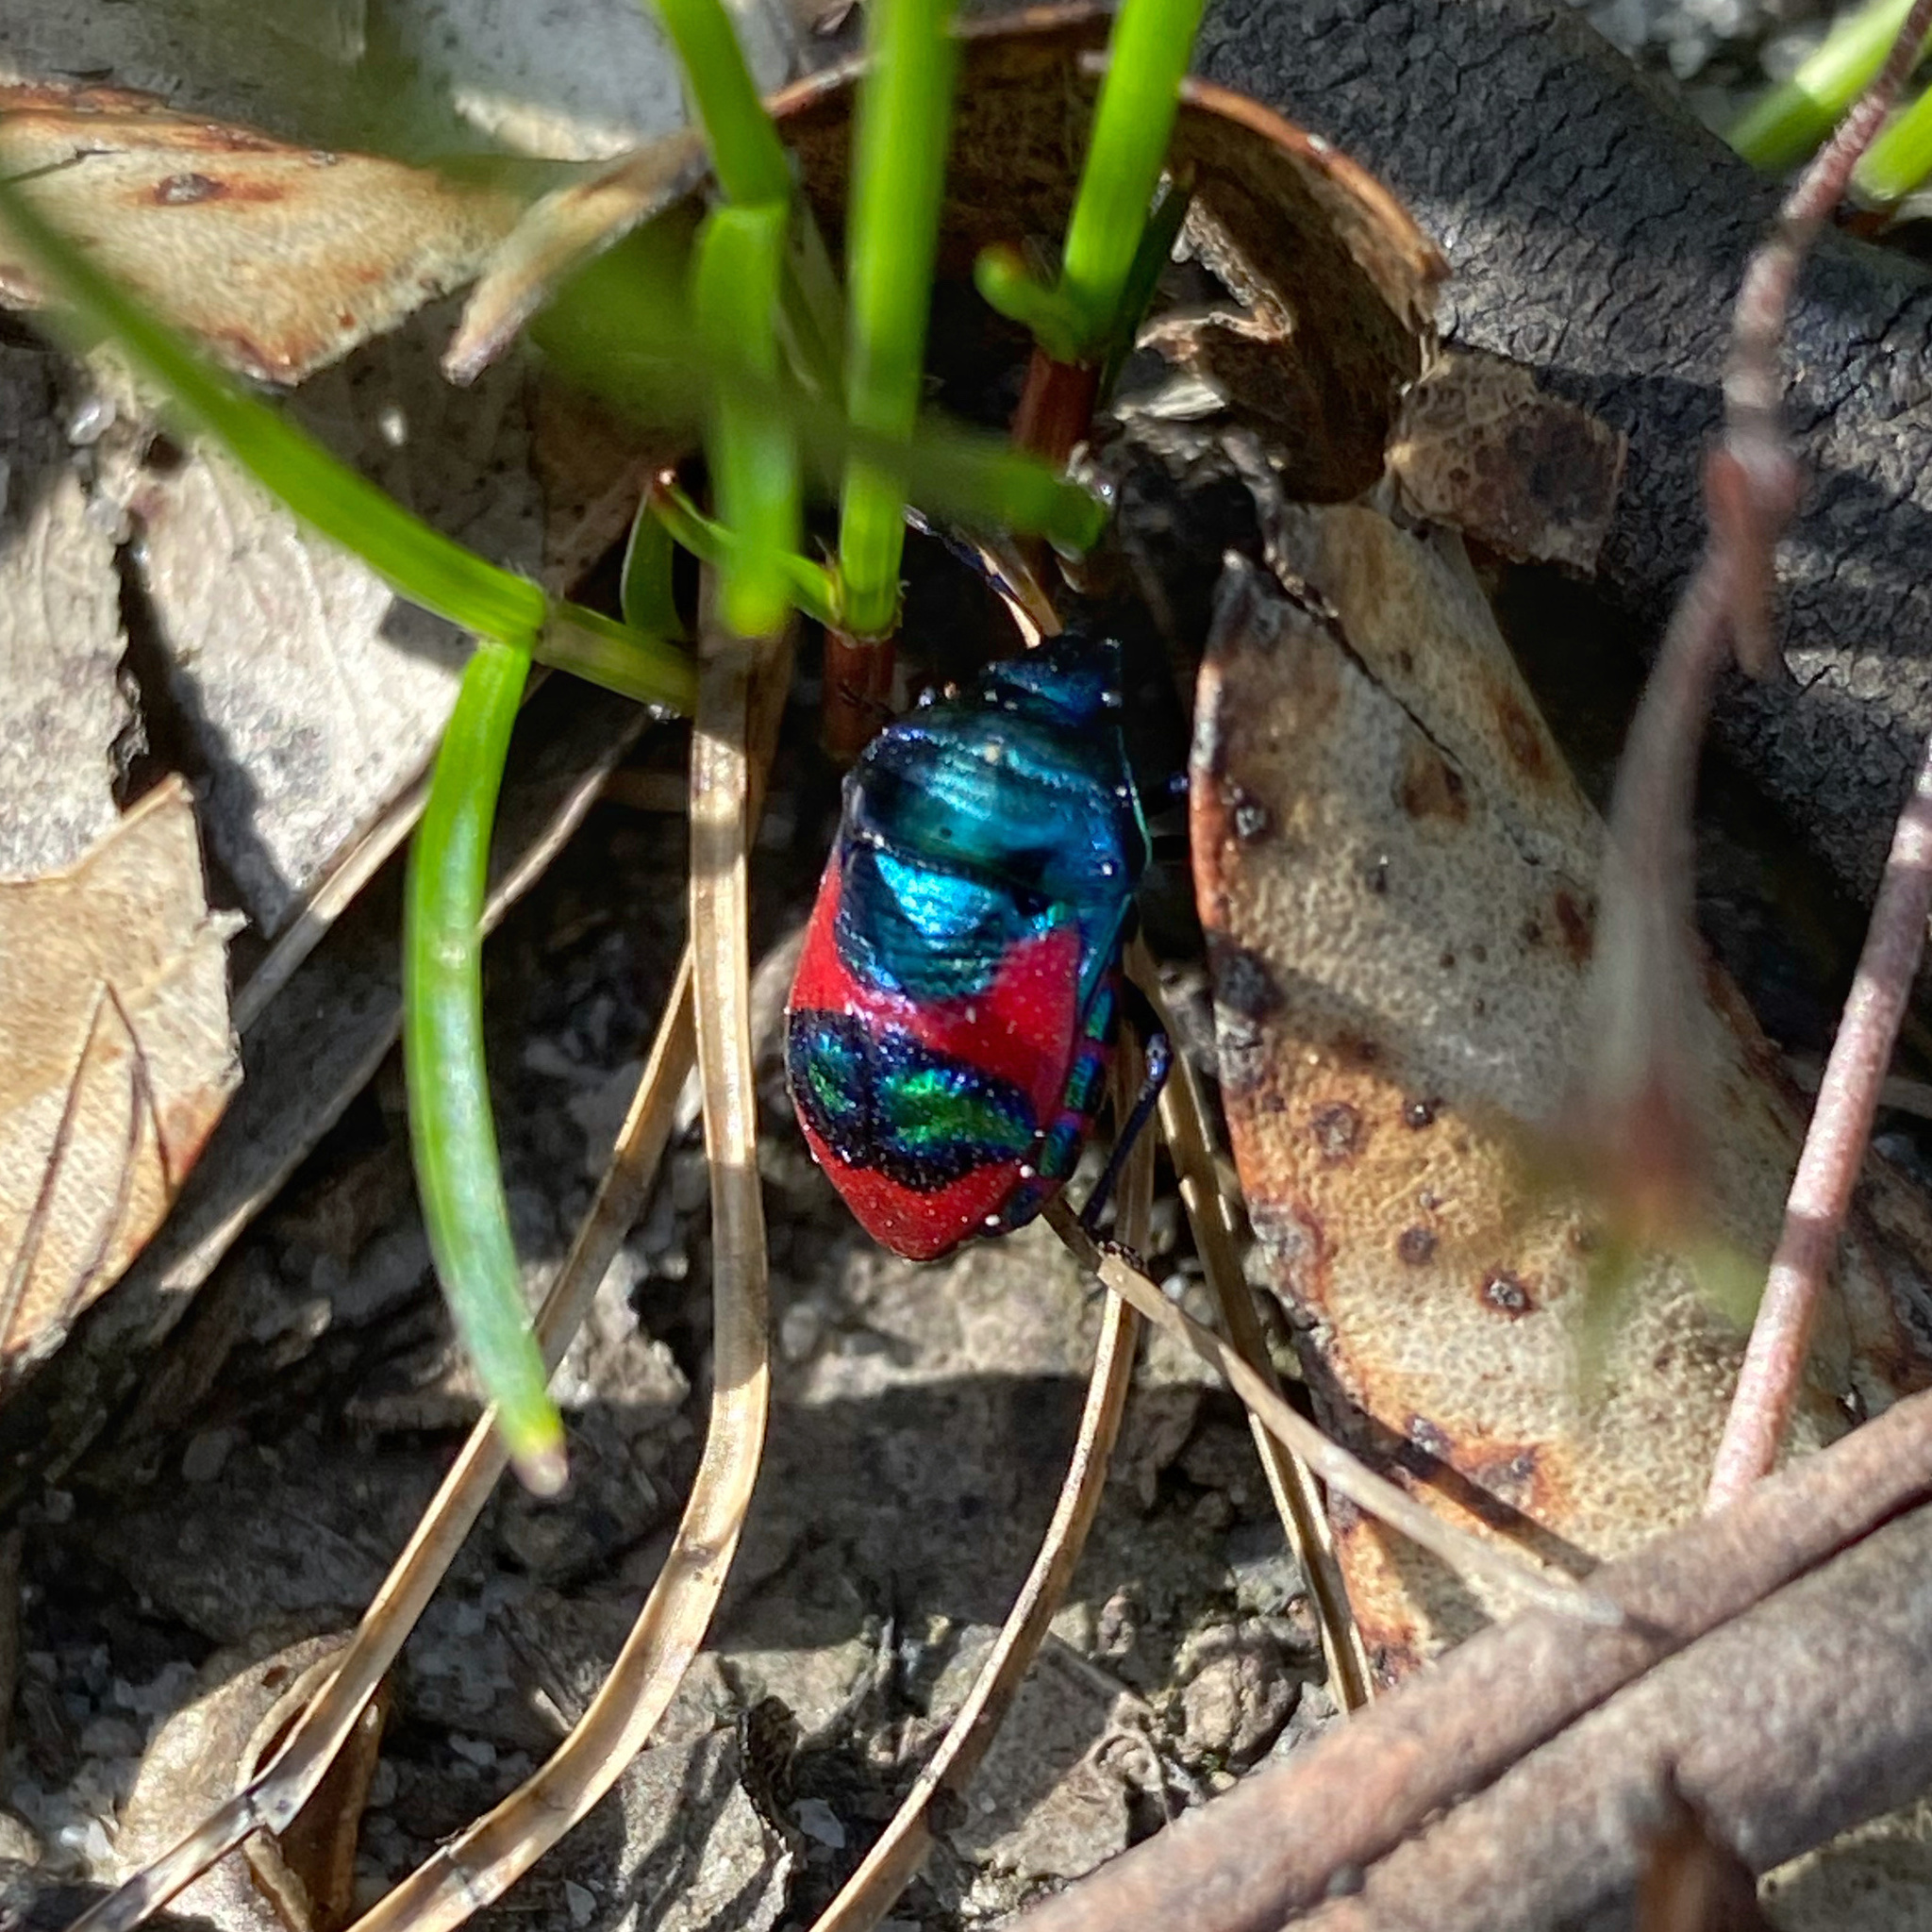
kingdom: Animalia
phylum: Arthropoda
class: Insecta
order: Hemiptera
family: Scutelleridae
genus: Choerocoris
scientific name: Choerocoris paganus
